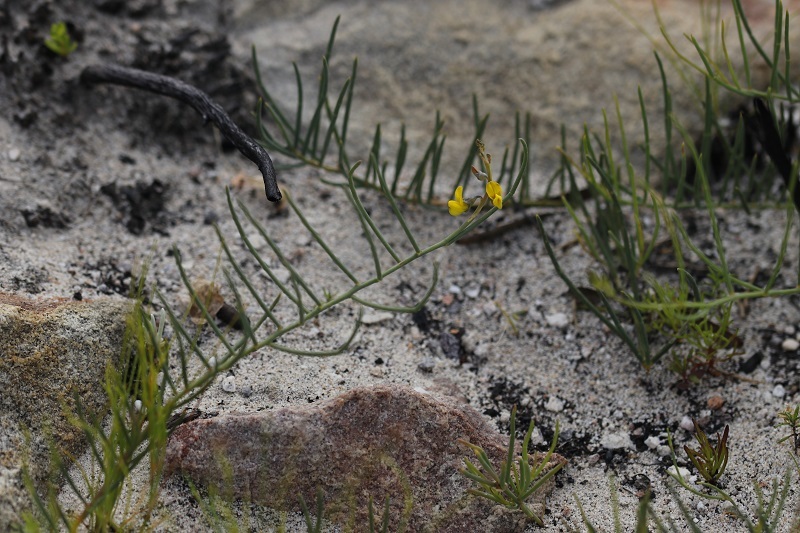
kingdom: Plantae
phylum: Tracheophyta
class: Magnoliopsida
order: Fabales
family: Fabaceae
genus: Lebeckia
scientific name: Lebeckia contaminata
